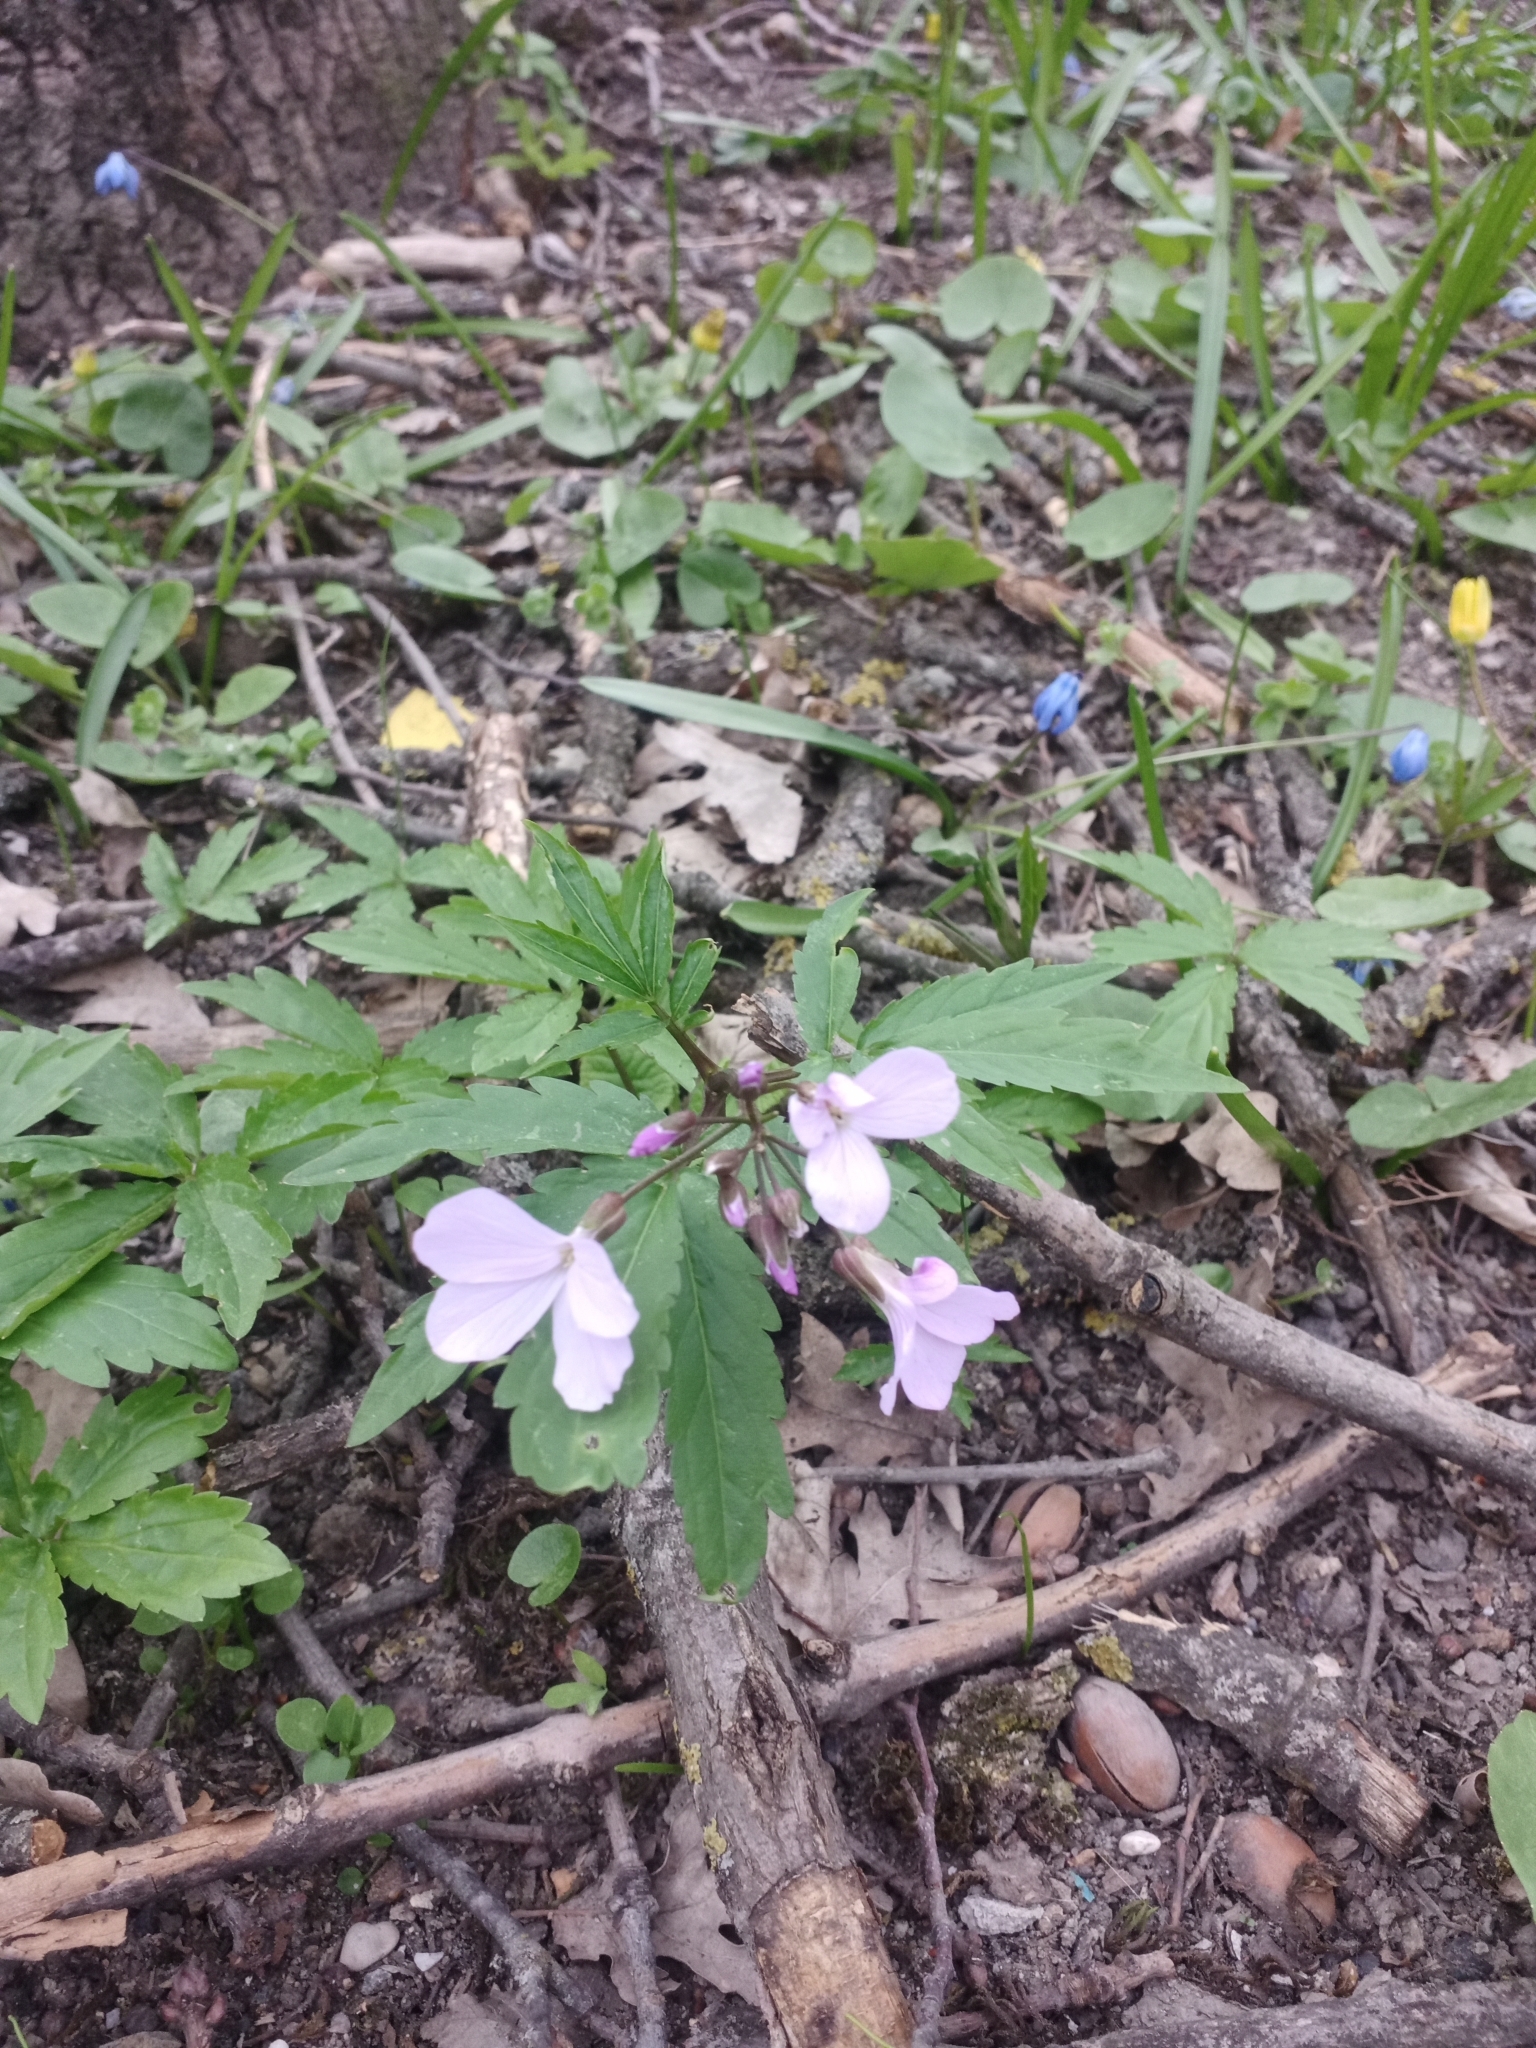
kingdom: Plantae
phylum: Tracheophyta
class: Magnoliopsida
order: Brassicales
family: Brassicaceae
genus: Cardamine
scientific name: Cardamine quinquefolia
